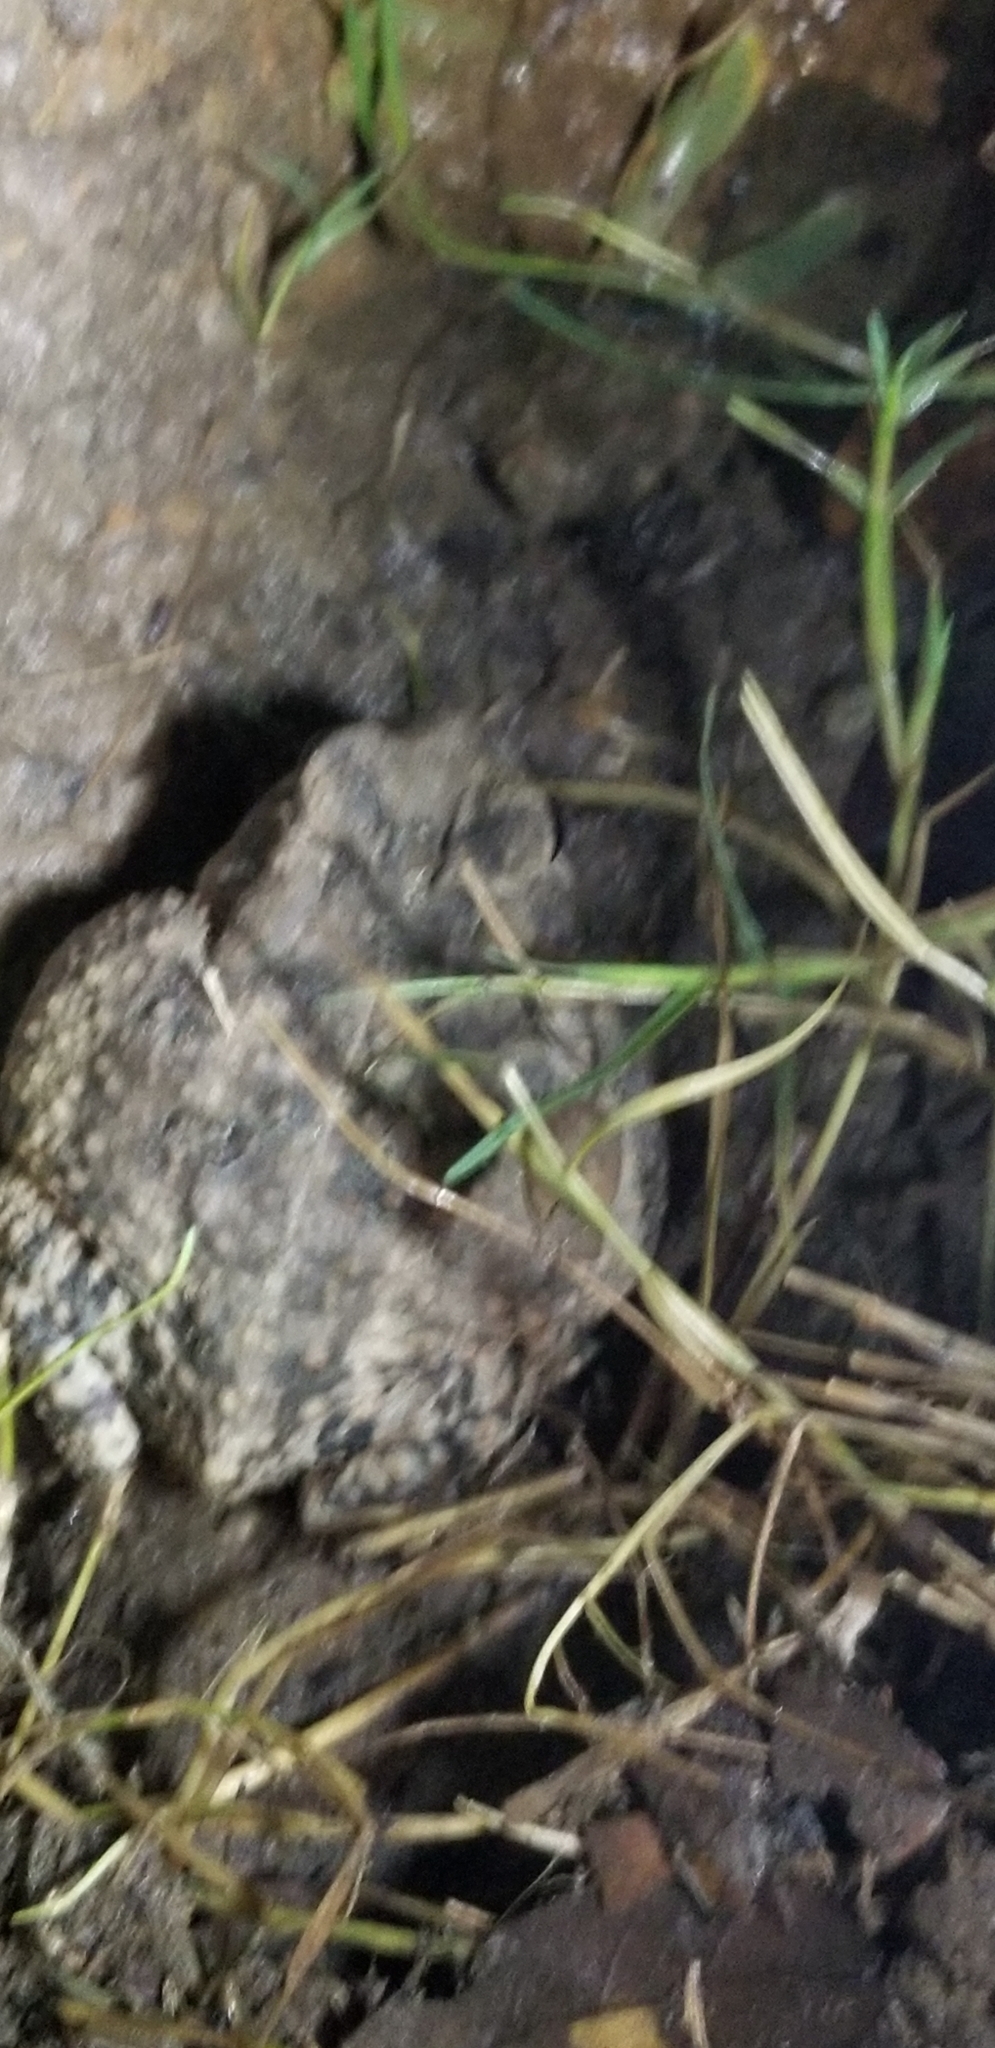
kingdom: Animalia
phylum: Chordata
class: Amphibia
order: Anura
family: Bufonidae
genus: Anaxyrus
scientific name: Anaxyrus fowleri
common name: Fowler's toad
